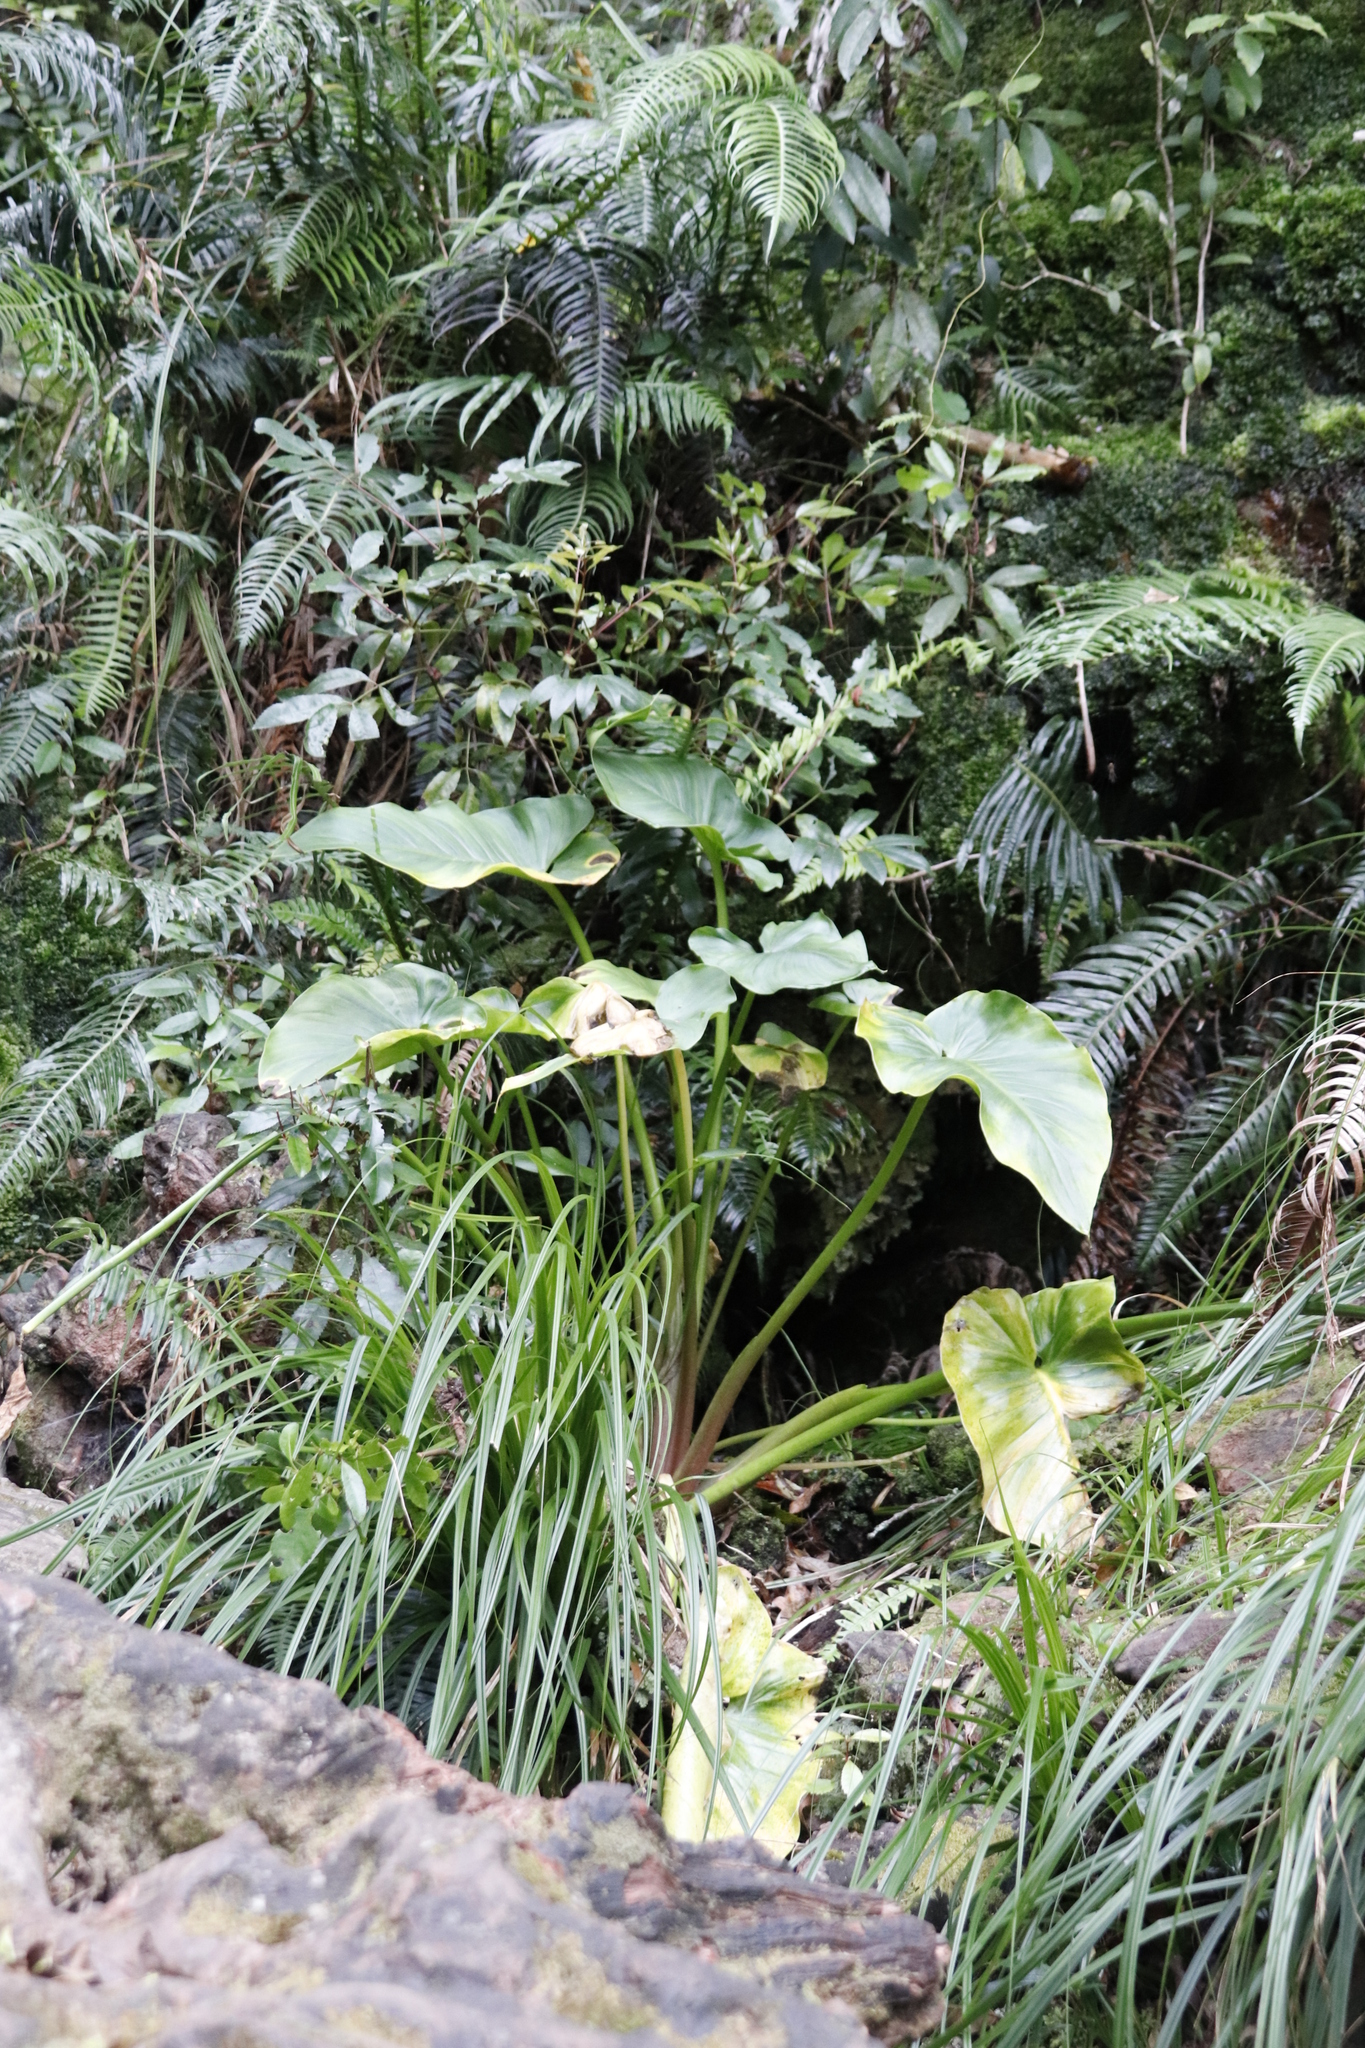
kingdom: Plantae
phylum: Tracheophyta
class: Liliopsida
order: Alismatales
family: Araceae
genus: Zantedeschia
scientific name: Zantedeschia aethiopica
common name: Altar-lily
